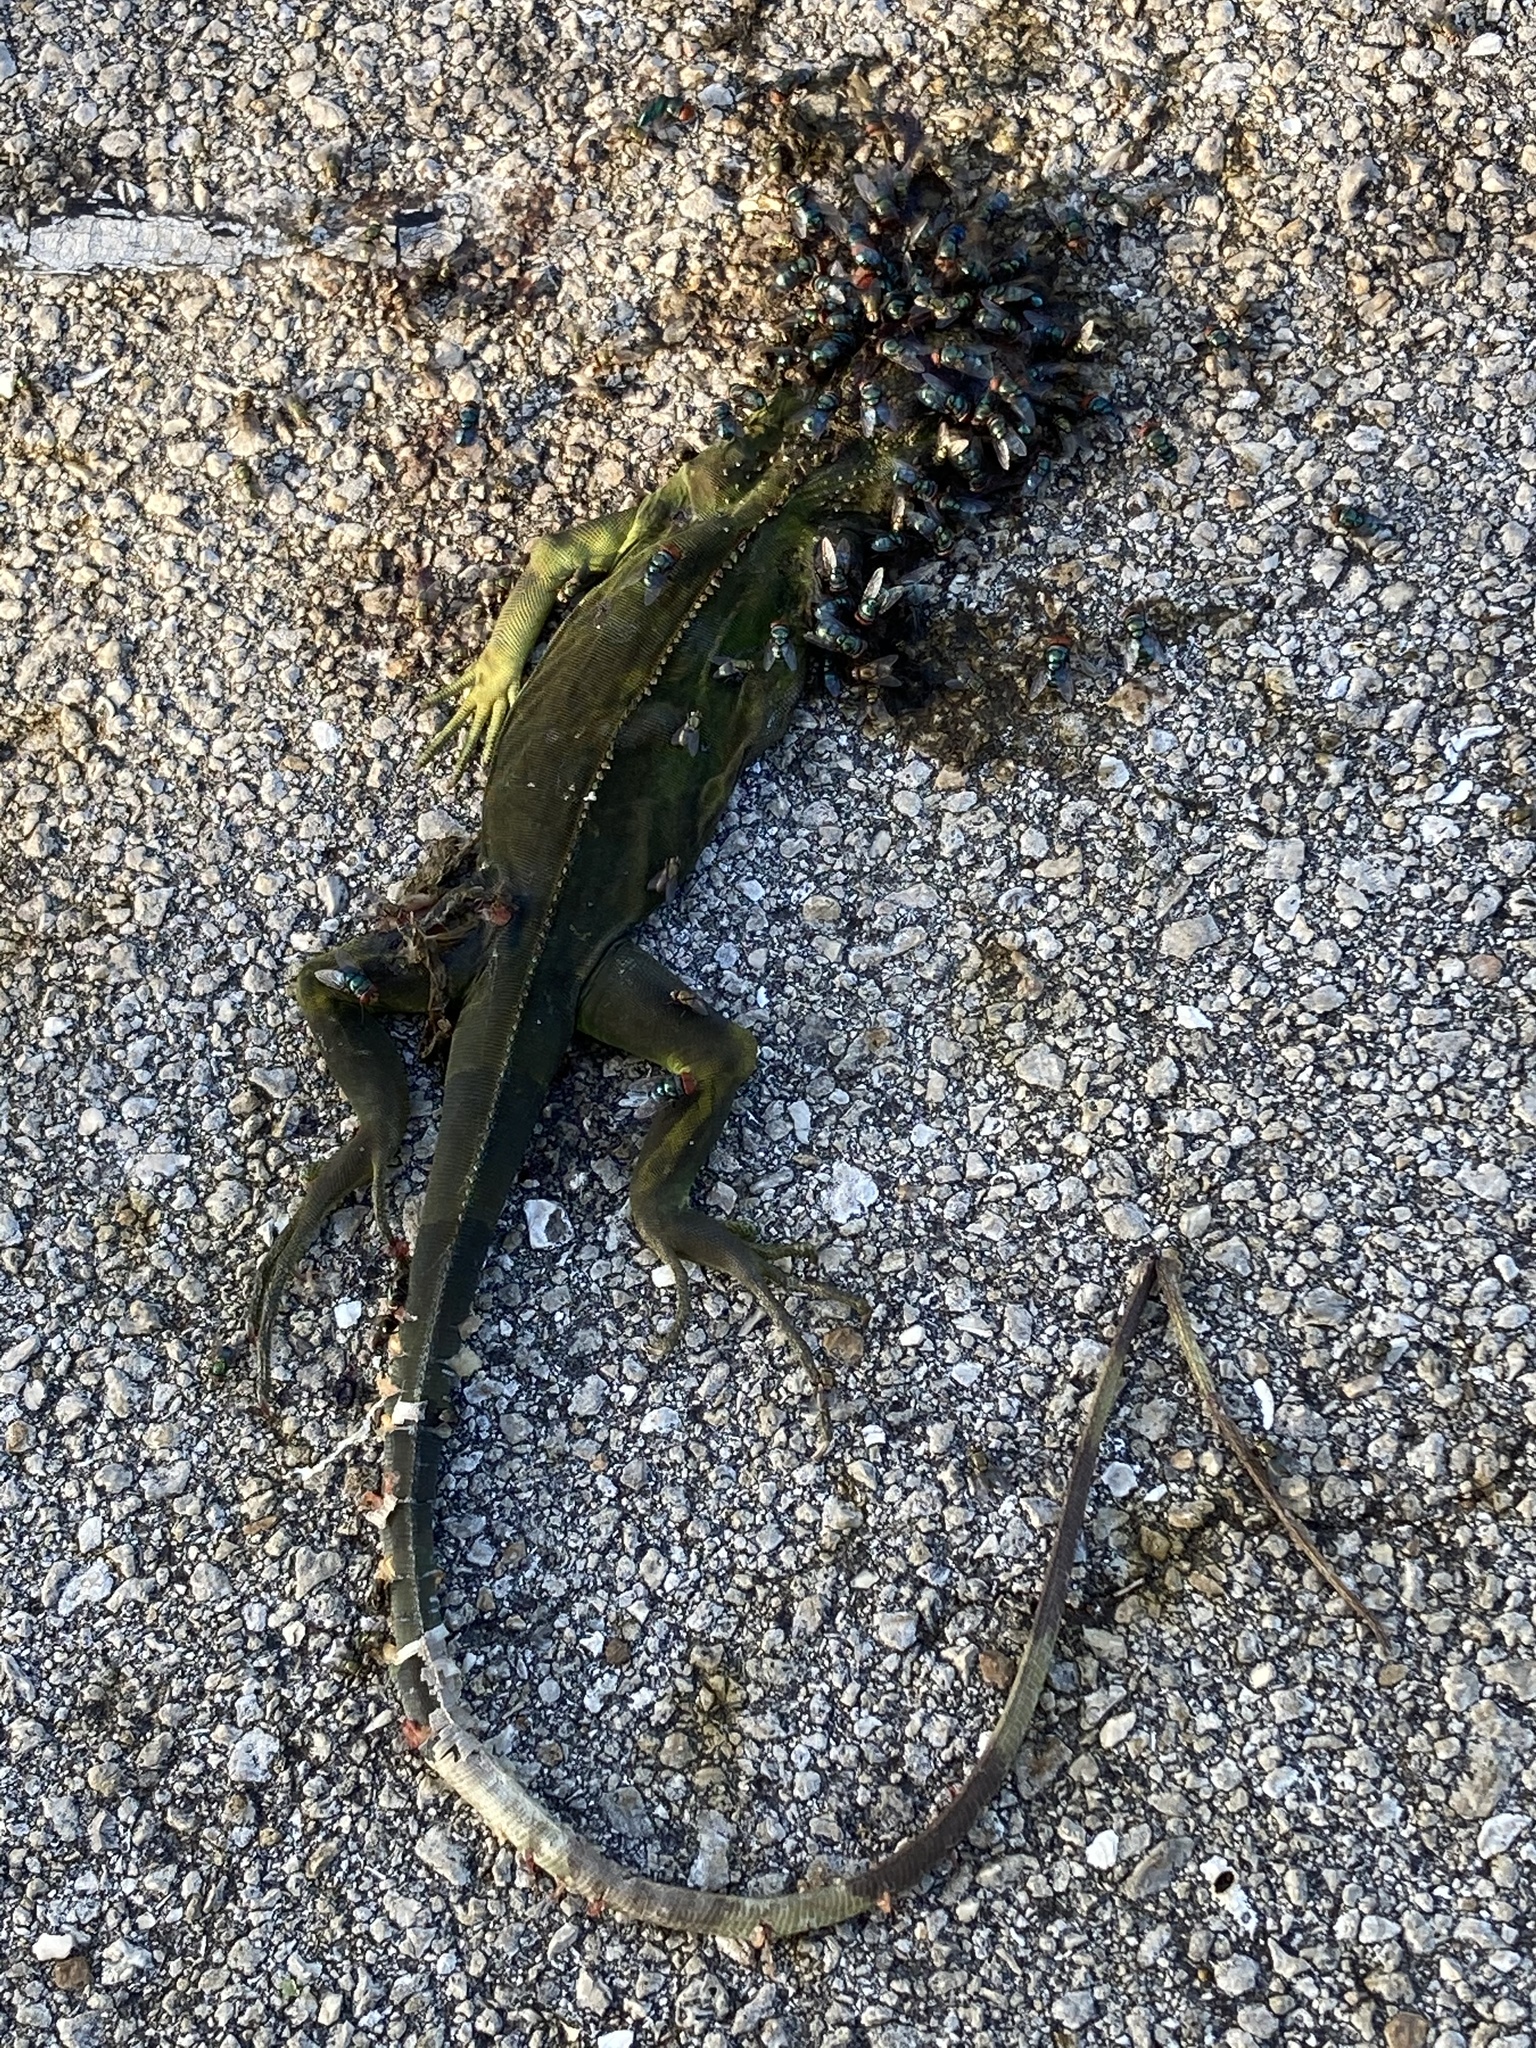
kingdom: Animalia
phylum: Chordata
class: Squamata
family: Iguanidae
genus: Iguana
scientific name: Iguana iguana
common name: Green iguana
